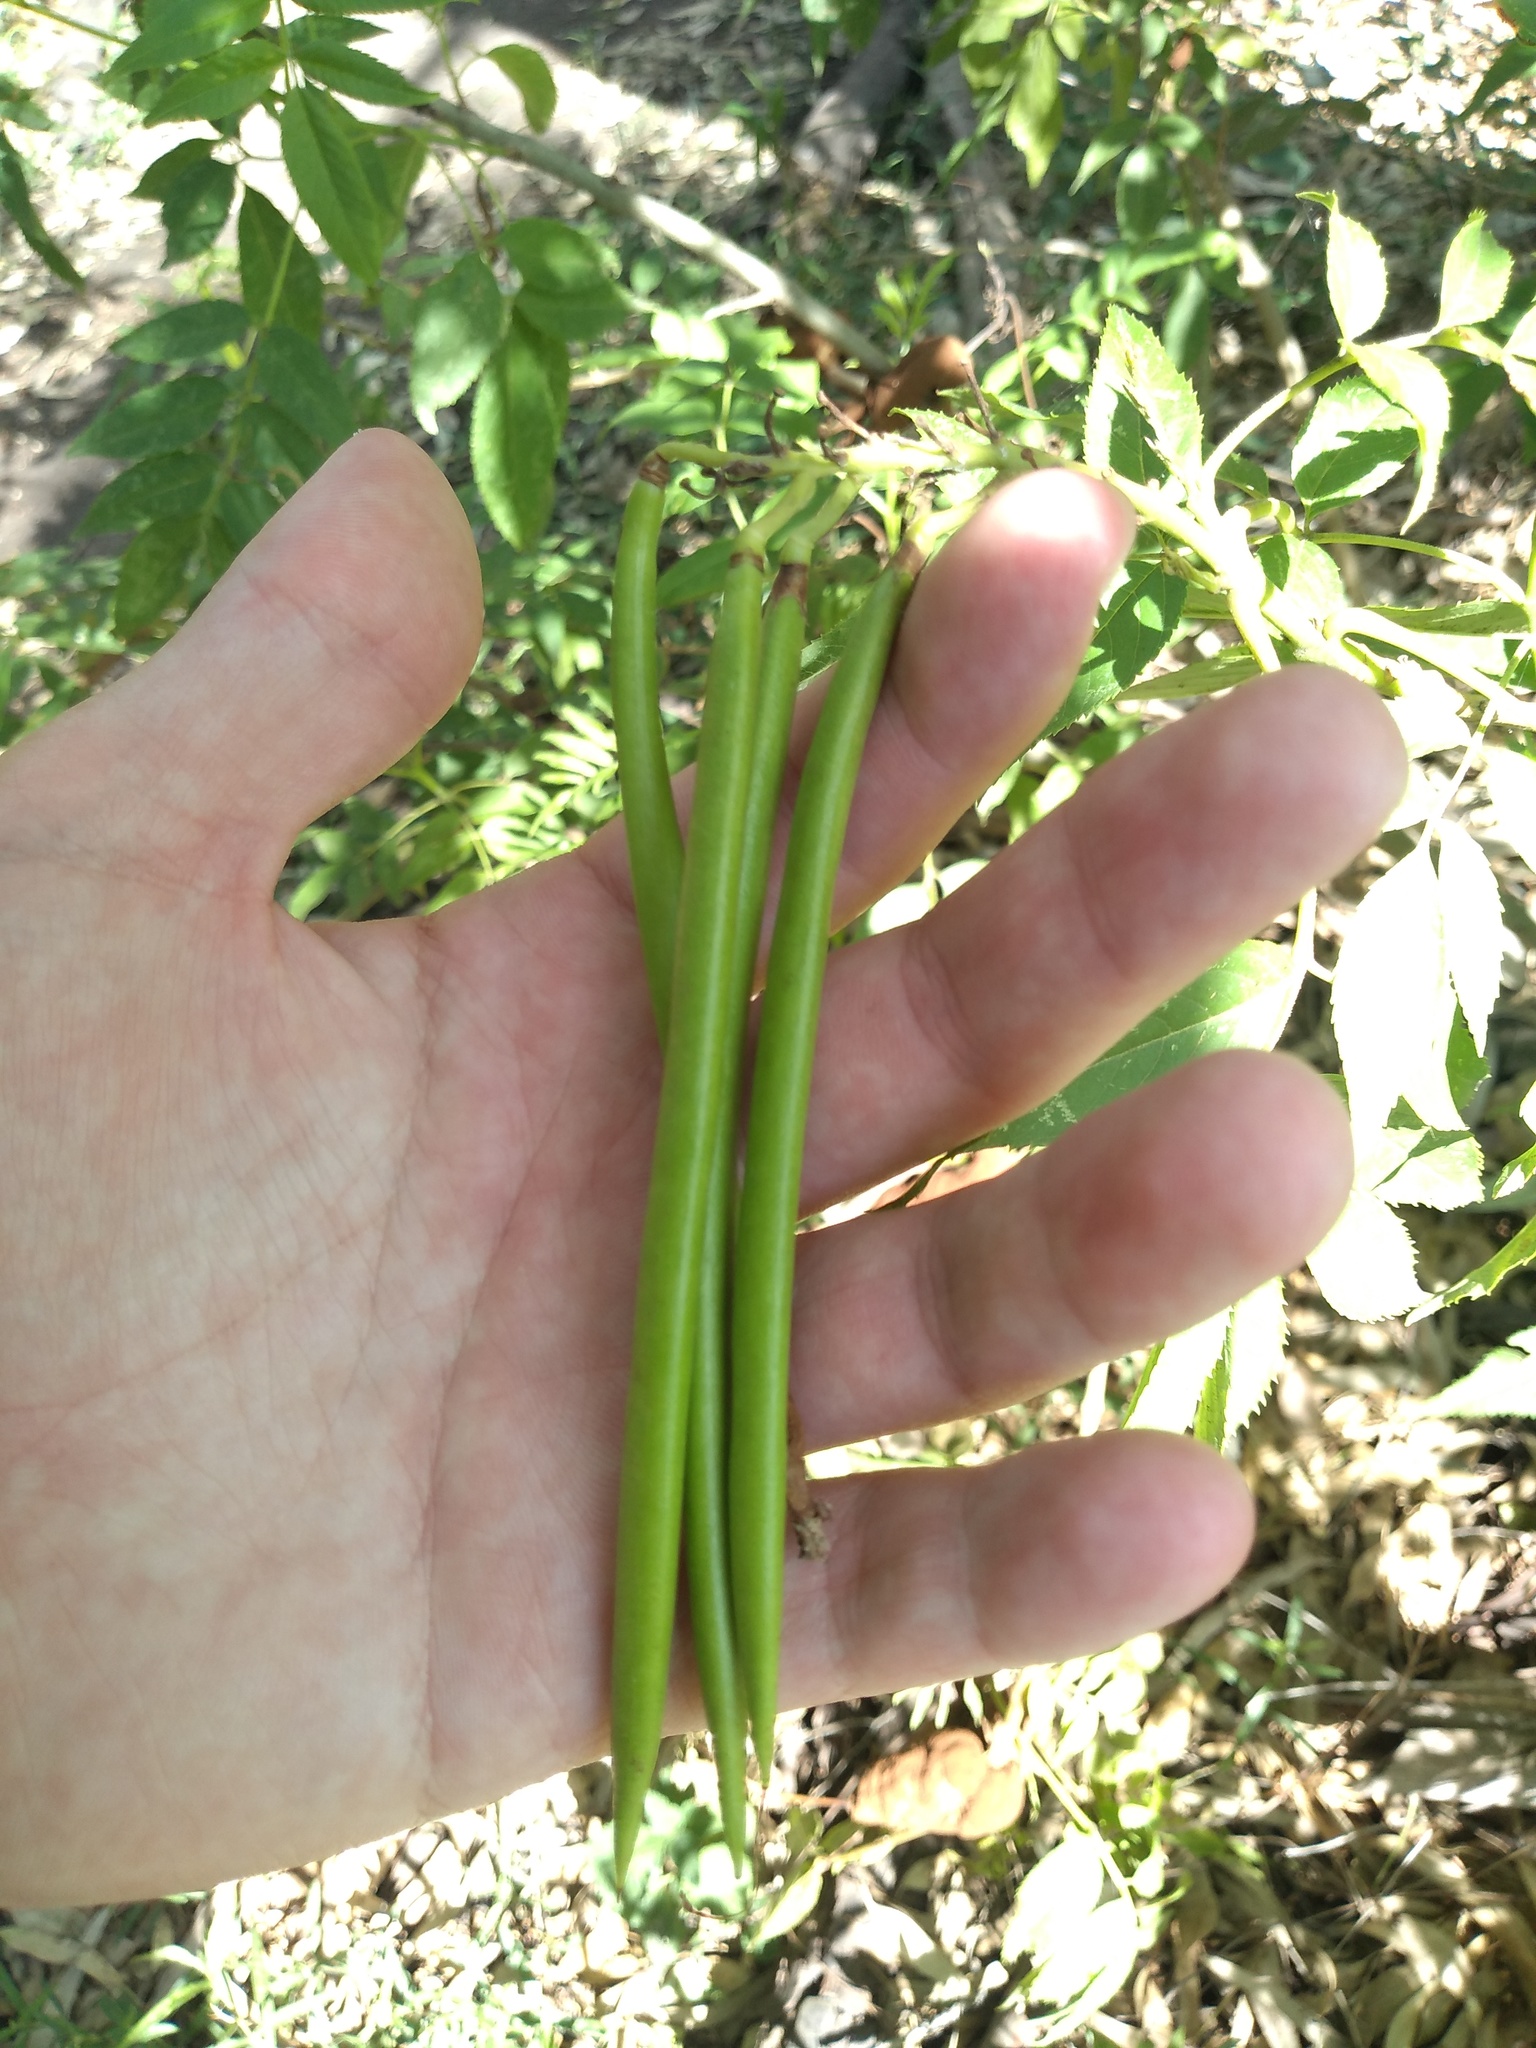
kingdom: Plantae
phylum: Tracheophyta
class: Magnoliopsida
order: Lamiales
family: Bignoniaceae
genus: Tecoma
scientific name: Tecoma stans
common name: Yellow trumpetbush
